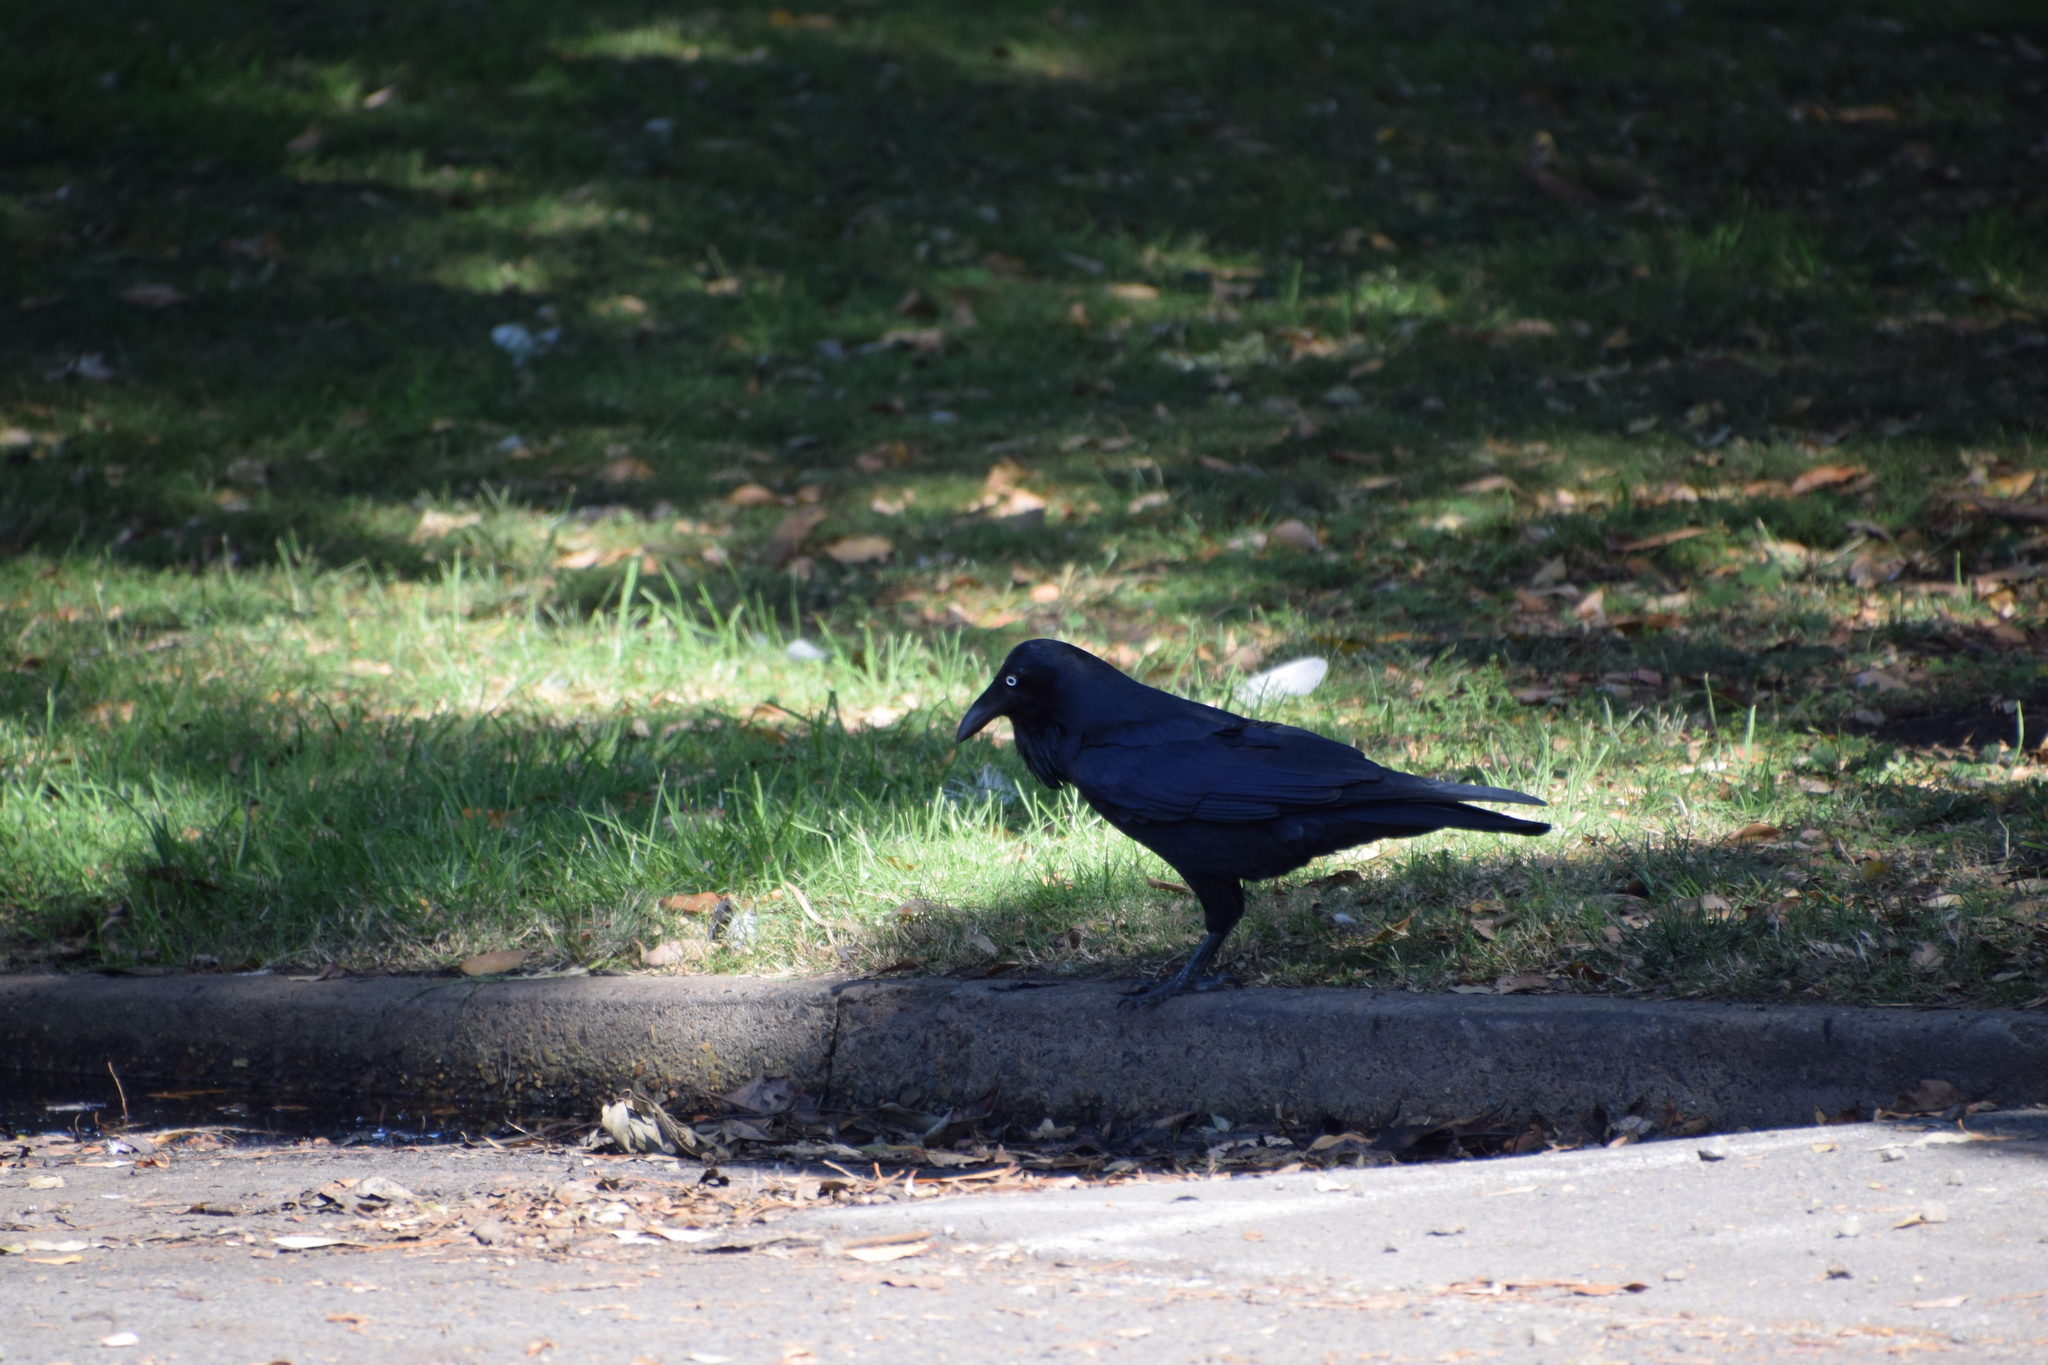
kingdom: Animalia
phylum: Chordata
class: Aves
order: Passeriformes
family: Corvidae
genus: Corvus
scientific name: Corvus coronoides
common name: Australian raven
